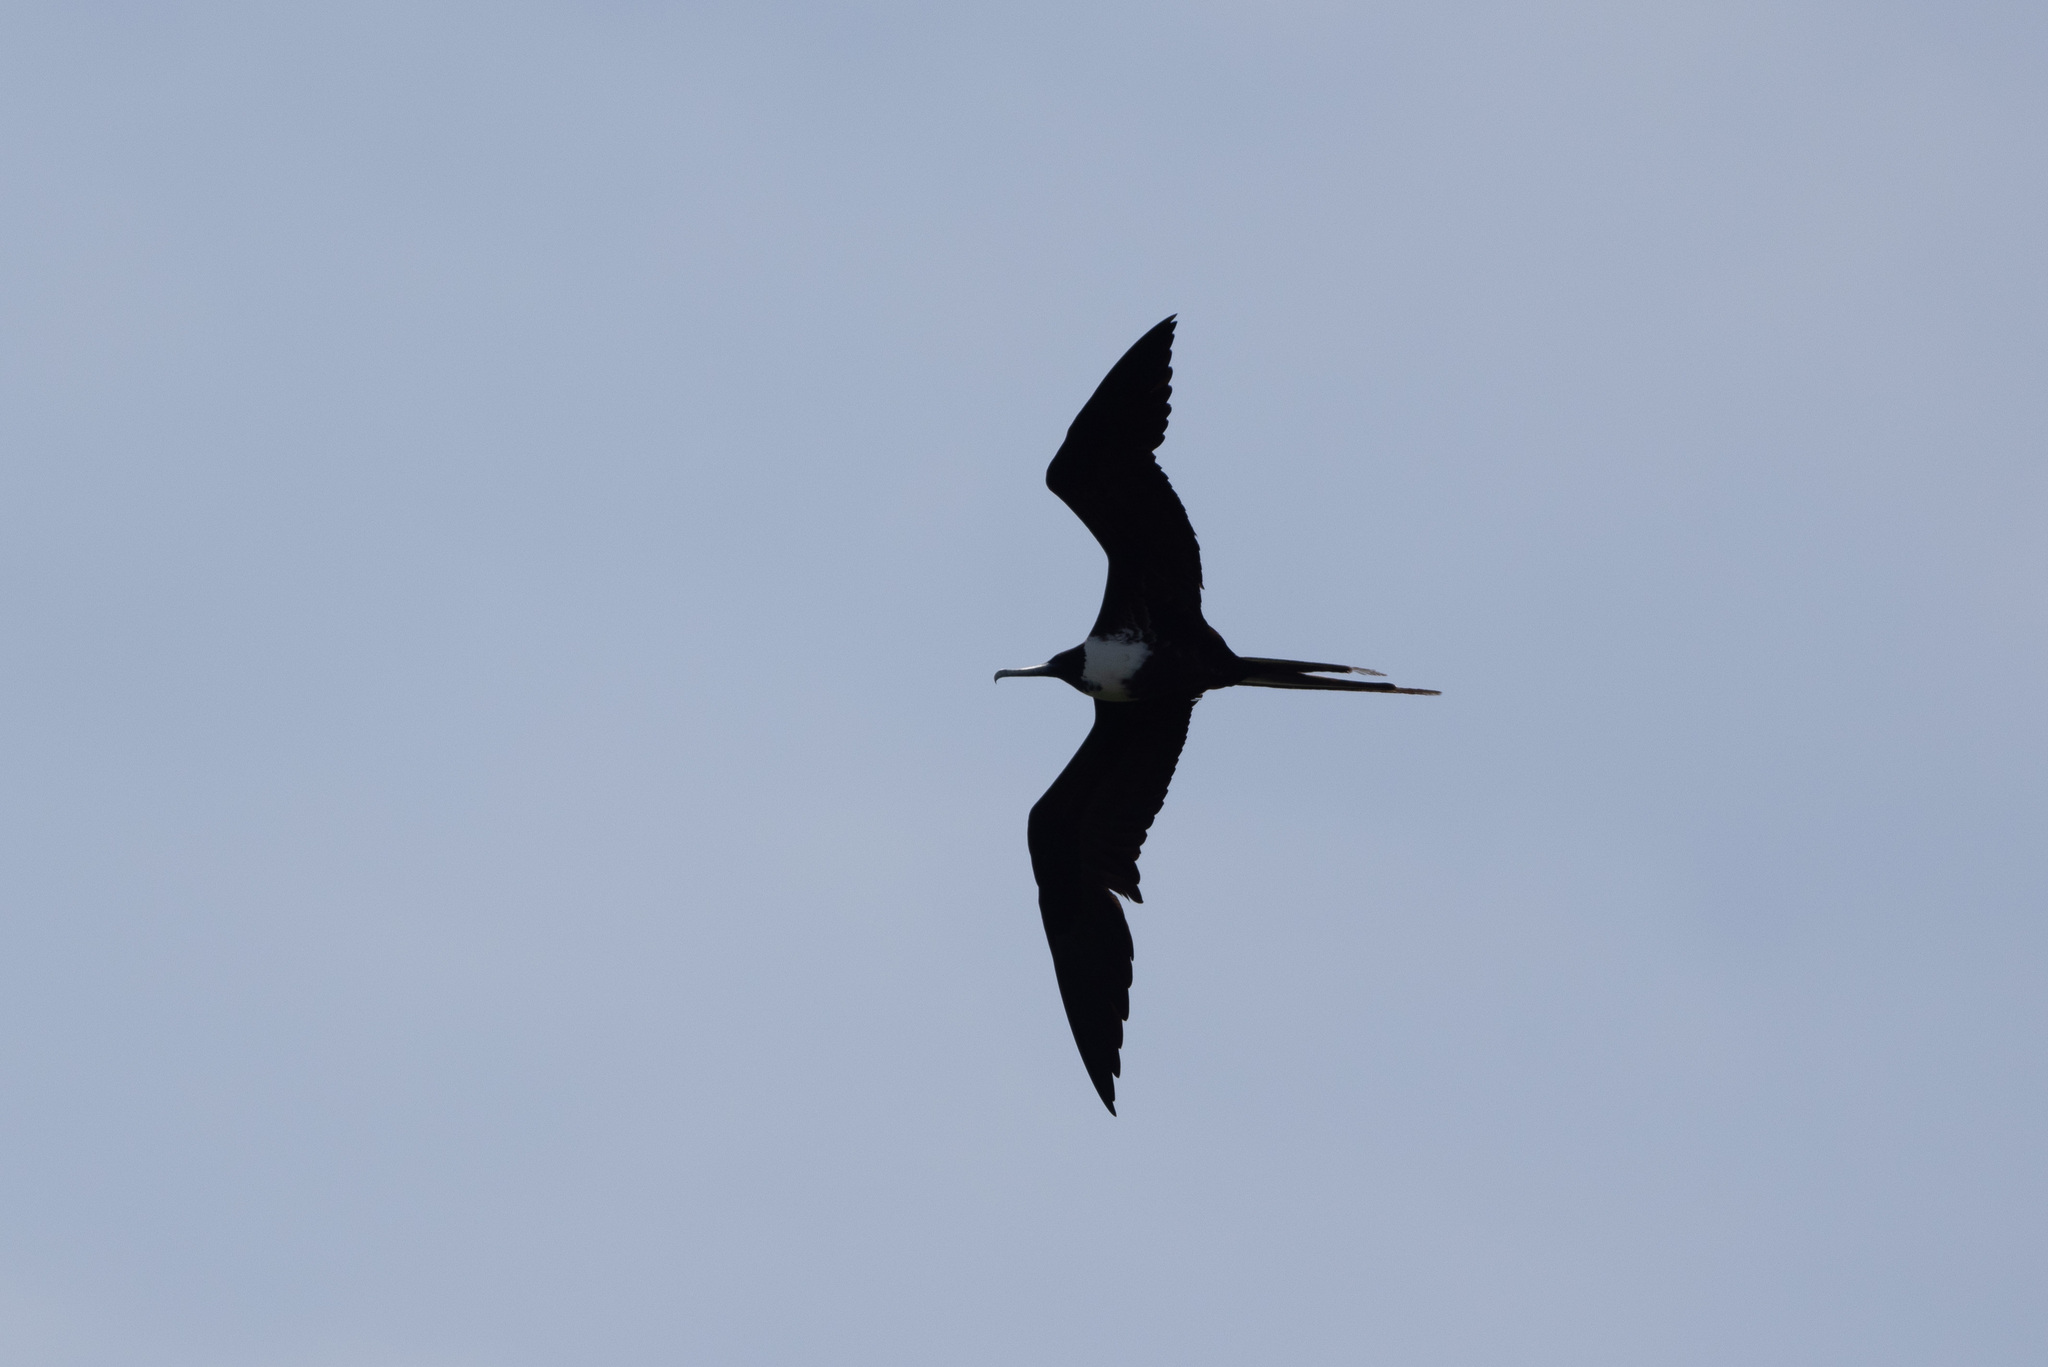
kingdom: Animalia
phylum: Chordata
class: Aves
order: Suliformes
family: Fregatidae
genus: Fregata
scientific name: Fregata magnificens
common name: Magnificent frigatebird
